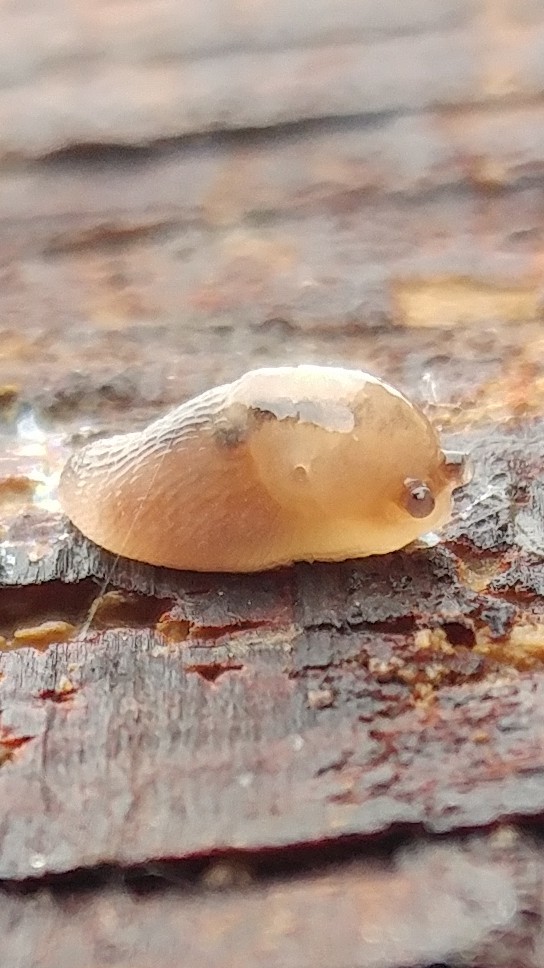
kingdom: Animalia
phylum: Mollusca
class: Gastropoda
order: Stylommatophora
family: Limacidae
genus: Ambigolimax
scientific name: Ambigolimax
